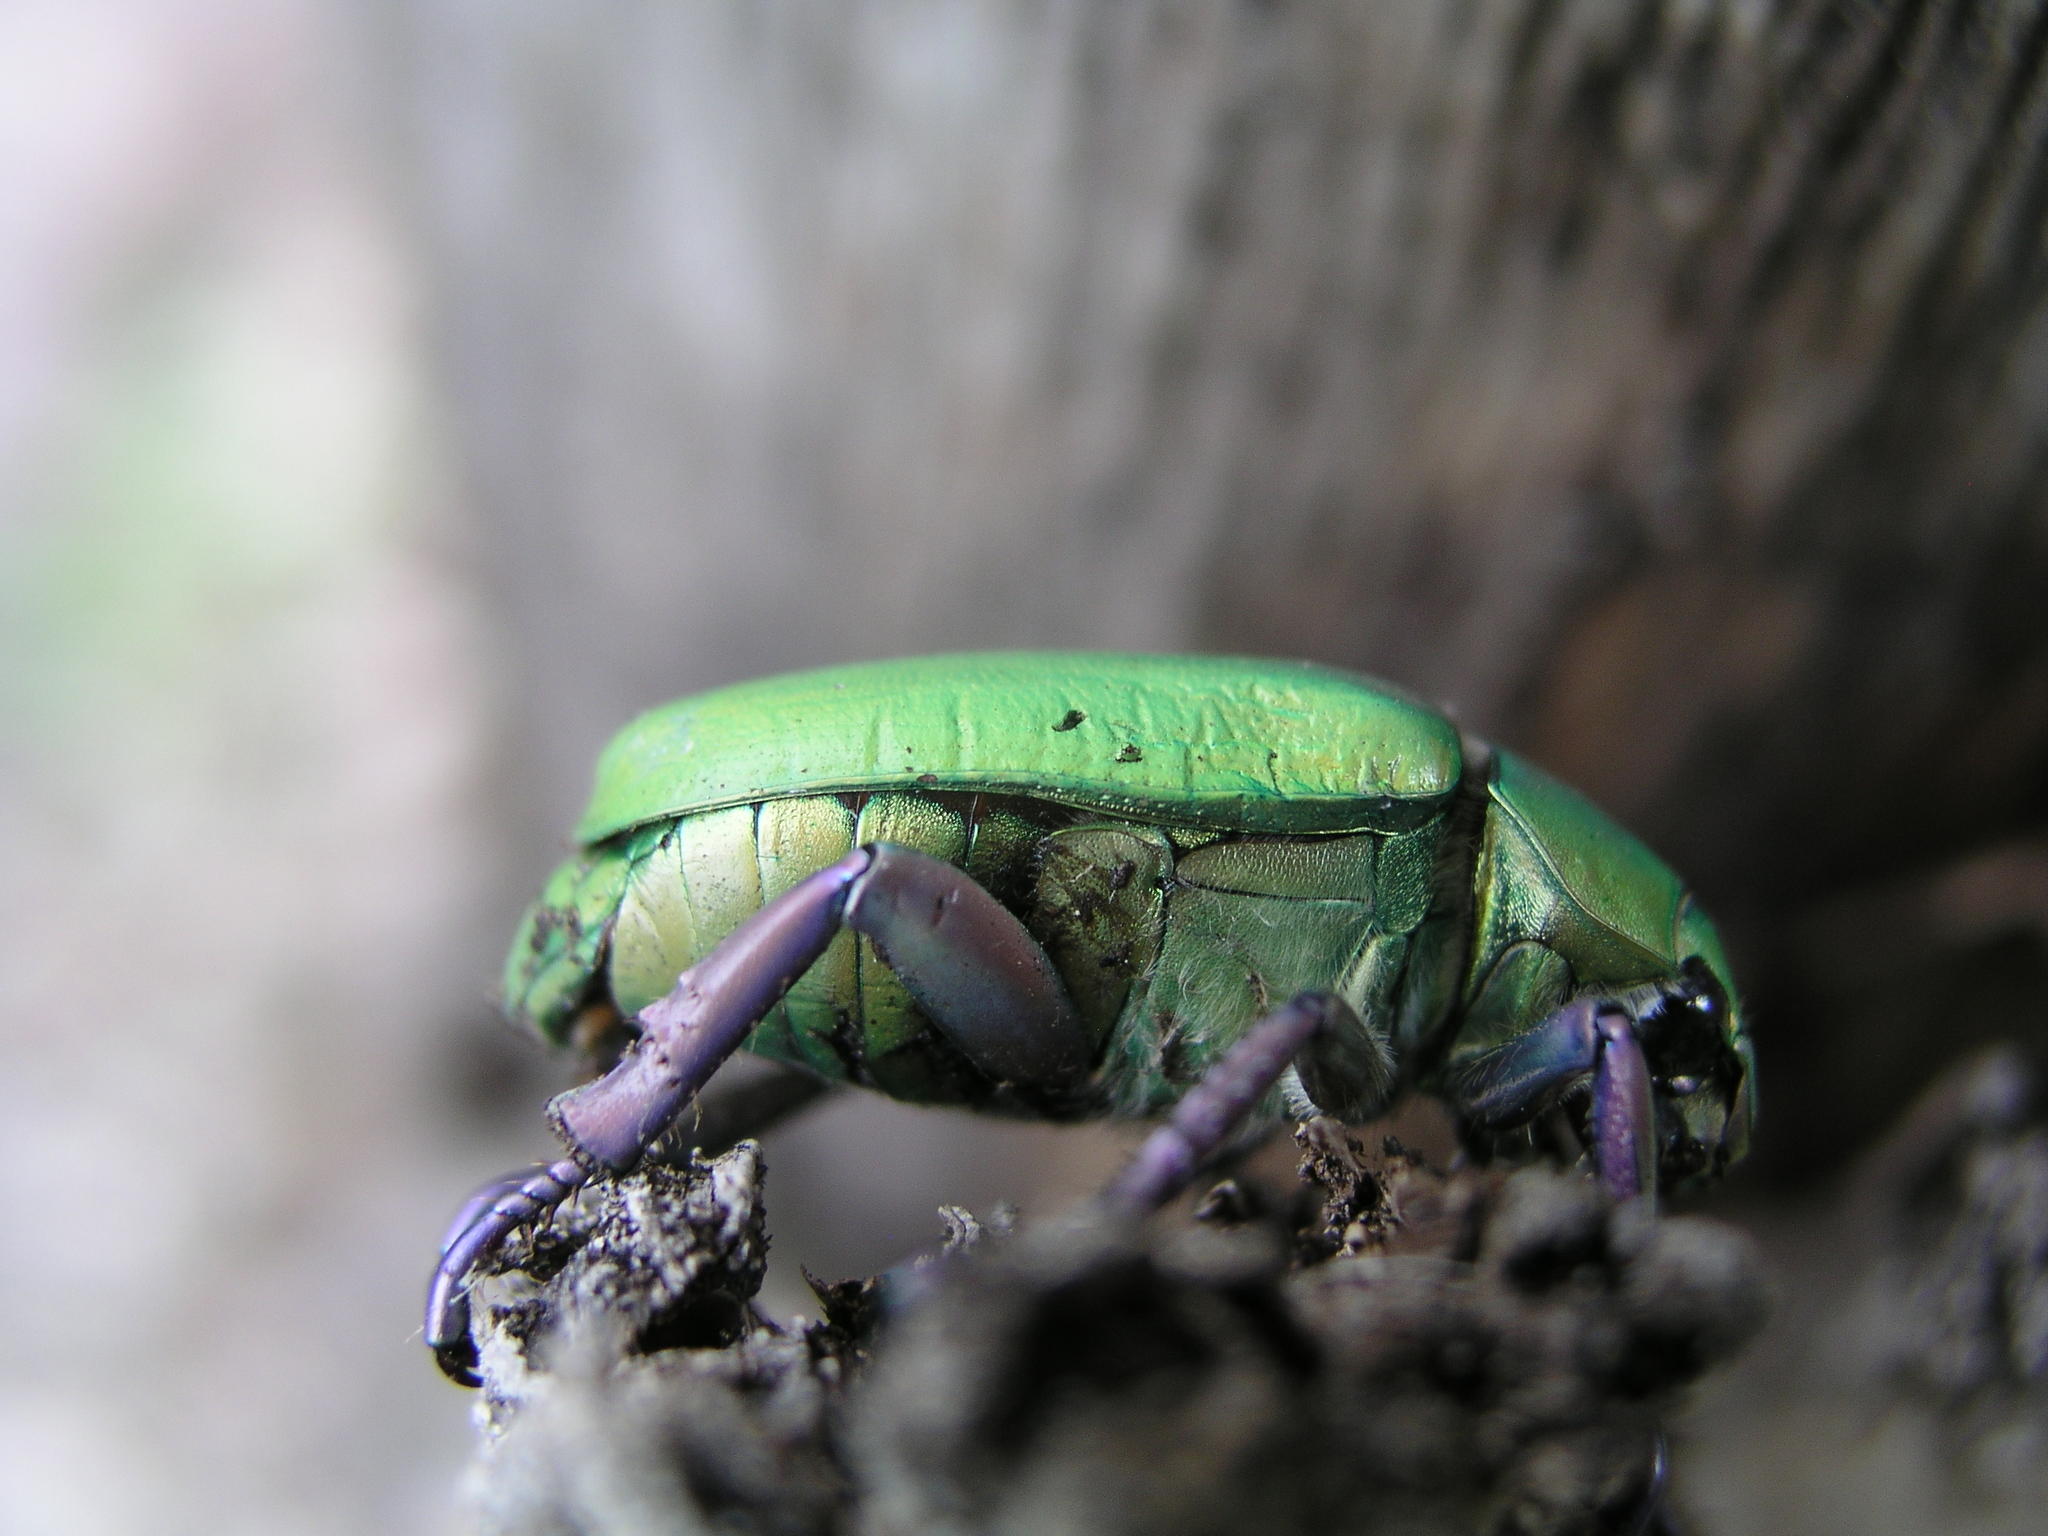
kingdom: Animalia
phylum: Arthropoda
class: Insecta
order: Coleoptera
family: Scarabaeidae
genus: Chrysina
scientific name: Chrysina beyeri
